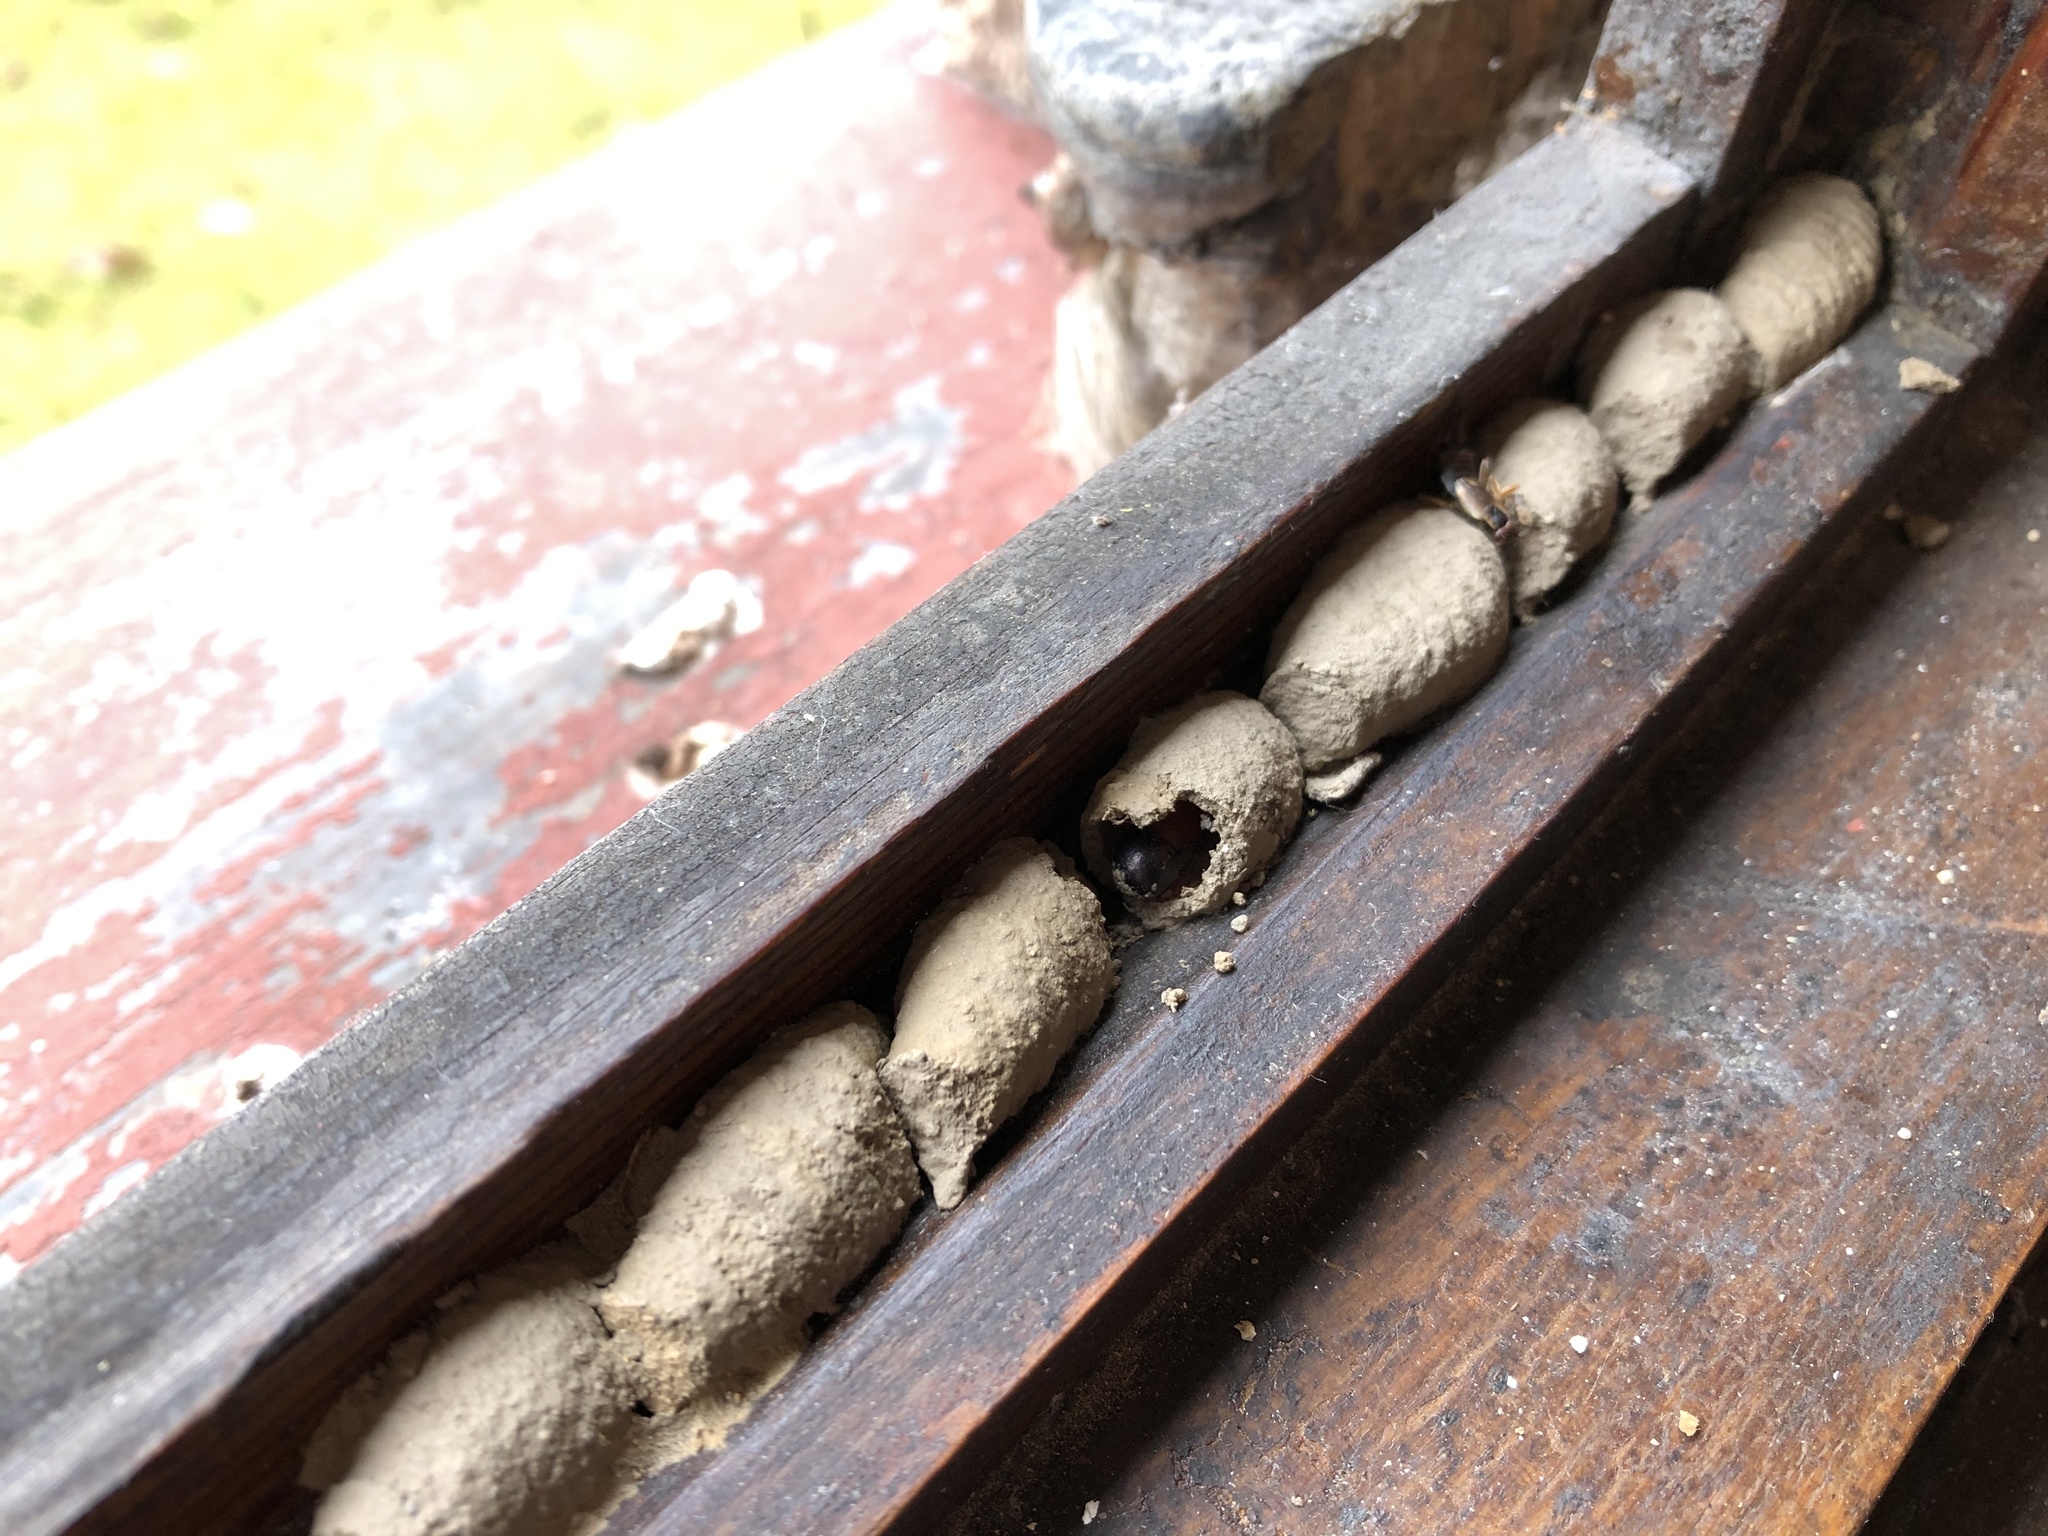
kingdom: Animalia
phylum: Arthropoda
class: Insecta
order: Hymenoptera
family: Sphecidae
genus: Sceliphron
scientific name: Sceliphron curvatum
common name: Pèlopèe
